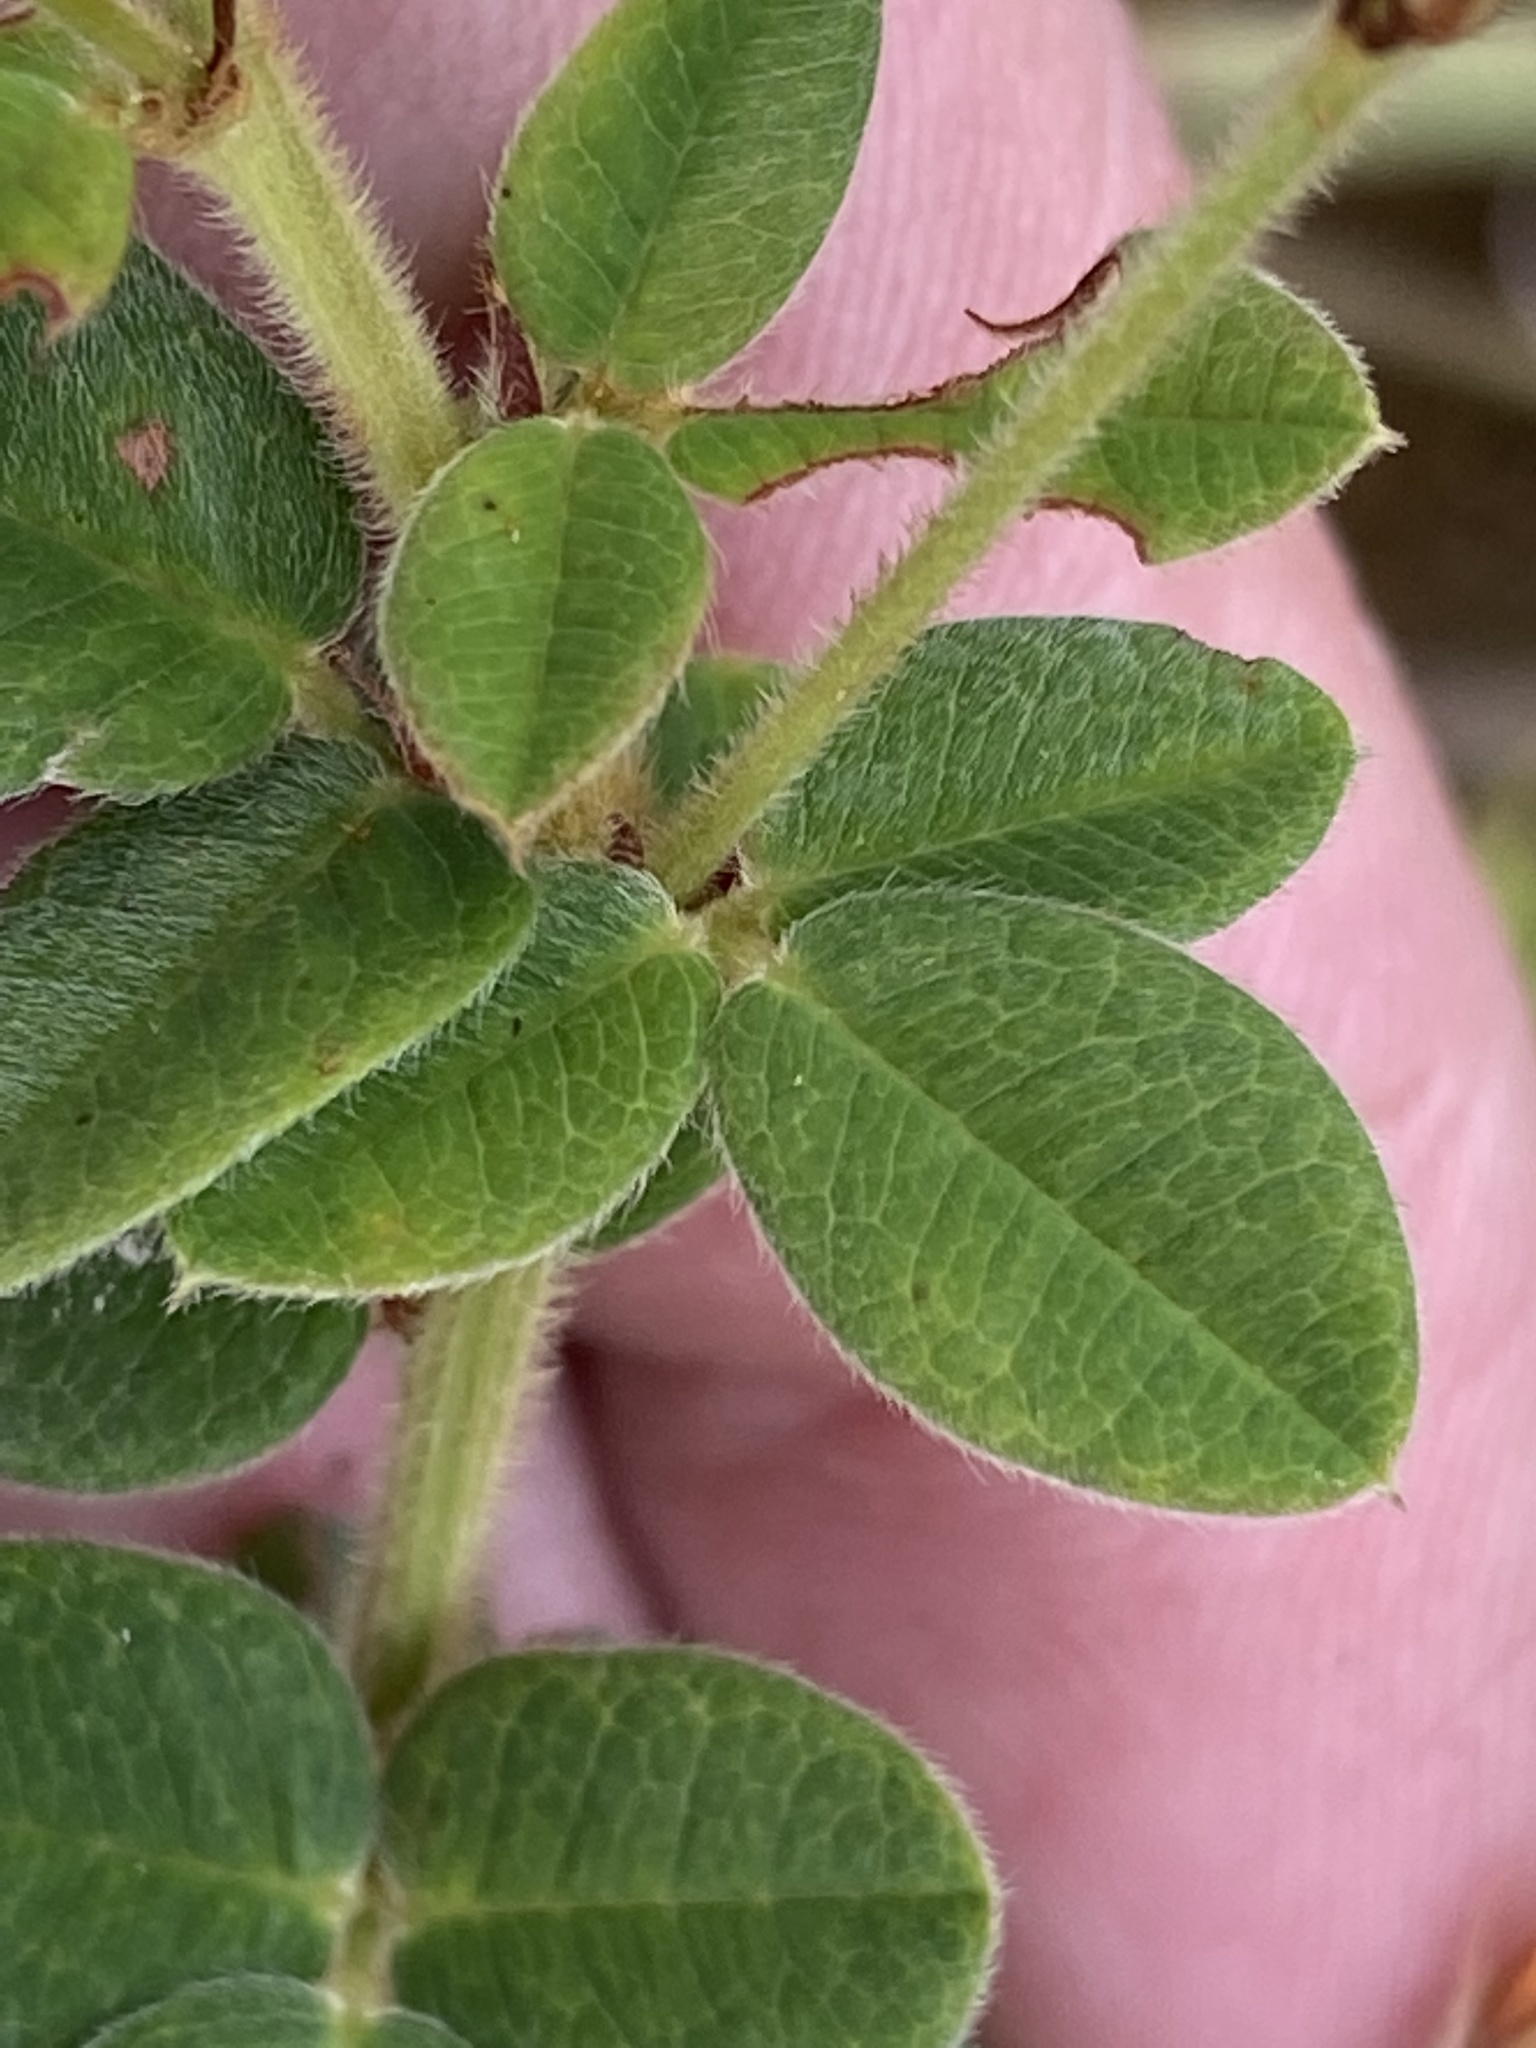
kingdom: Plantae
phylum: Tracheophyta
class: Magnoliopsida
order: Fabales
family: Fabaceae
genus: Lespedeza
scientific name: Lespedeza hirta
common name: Hairy lespedeza
